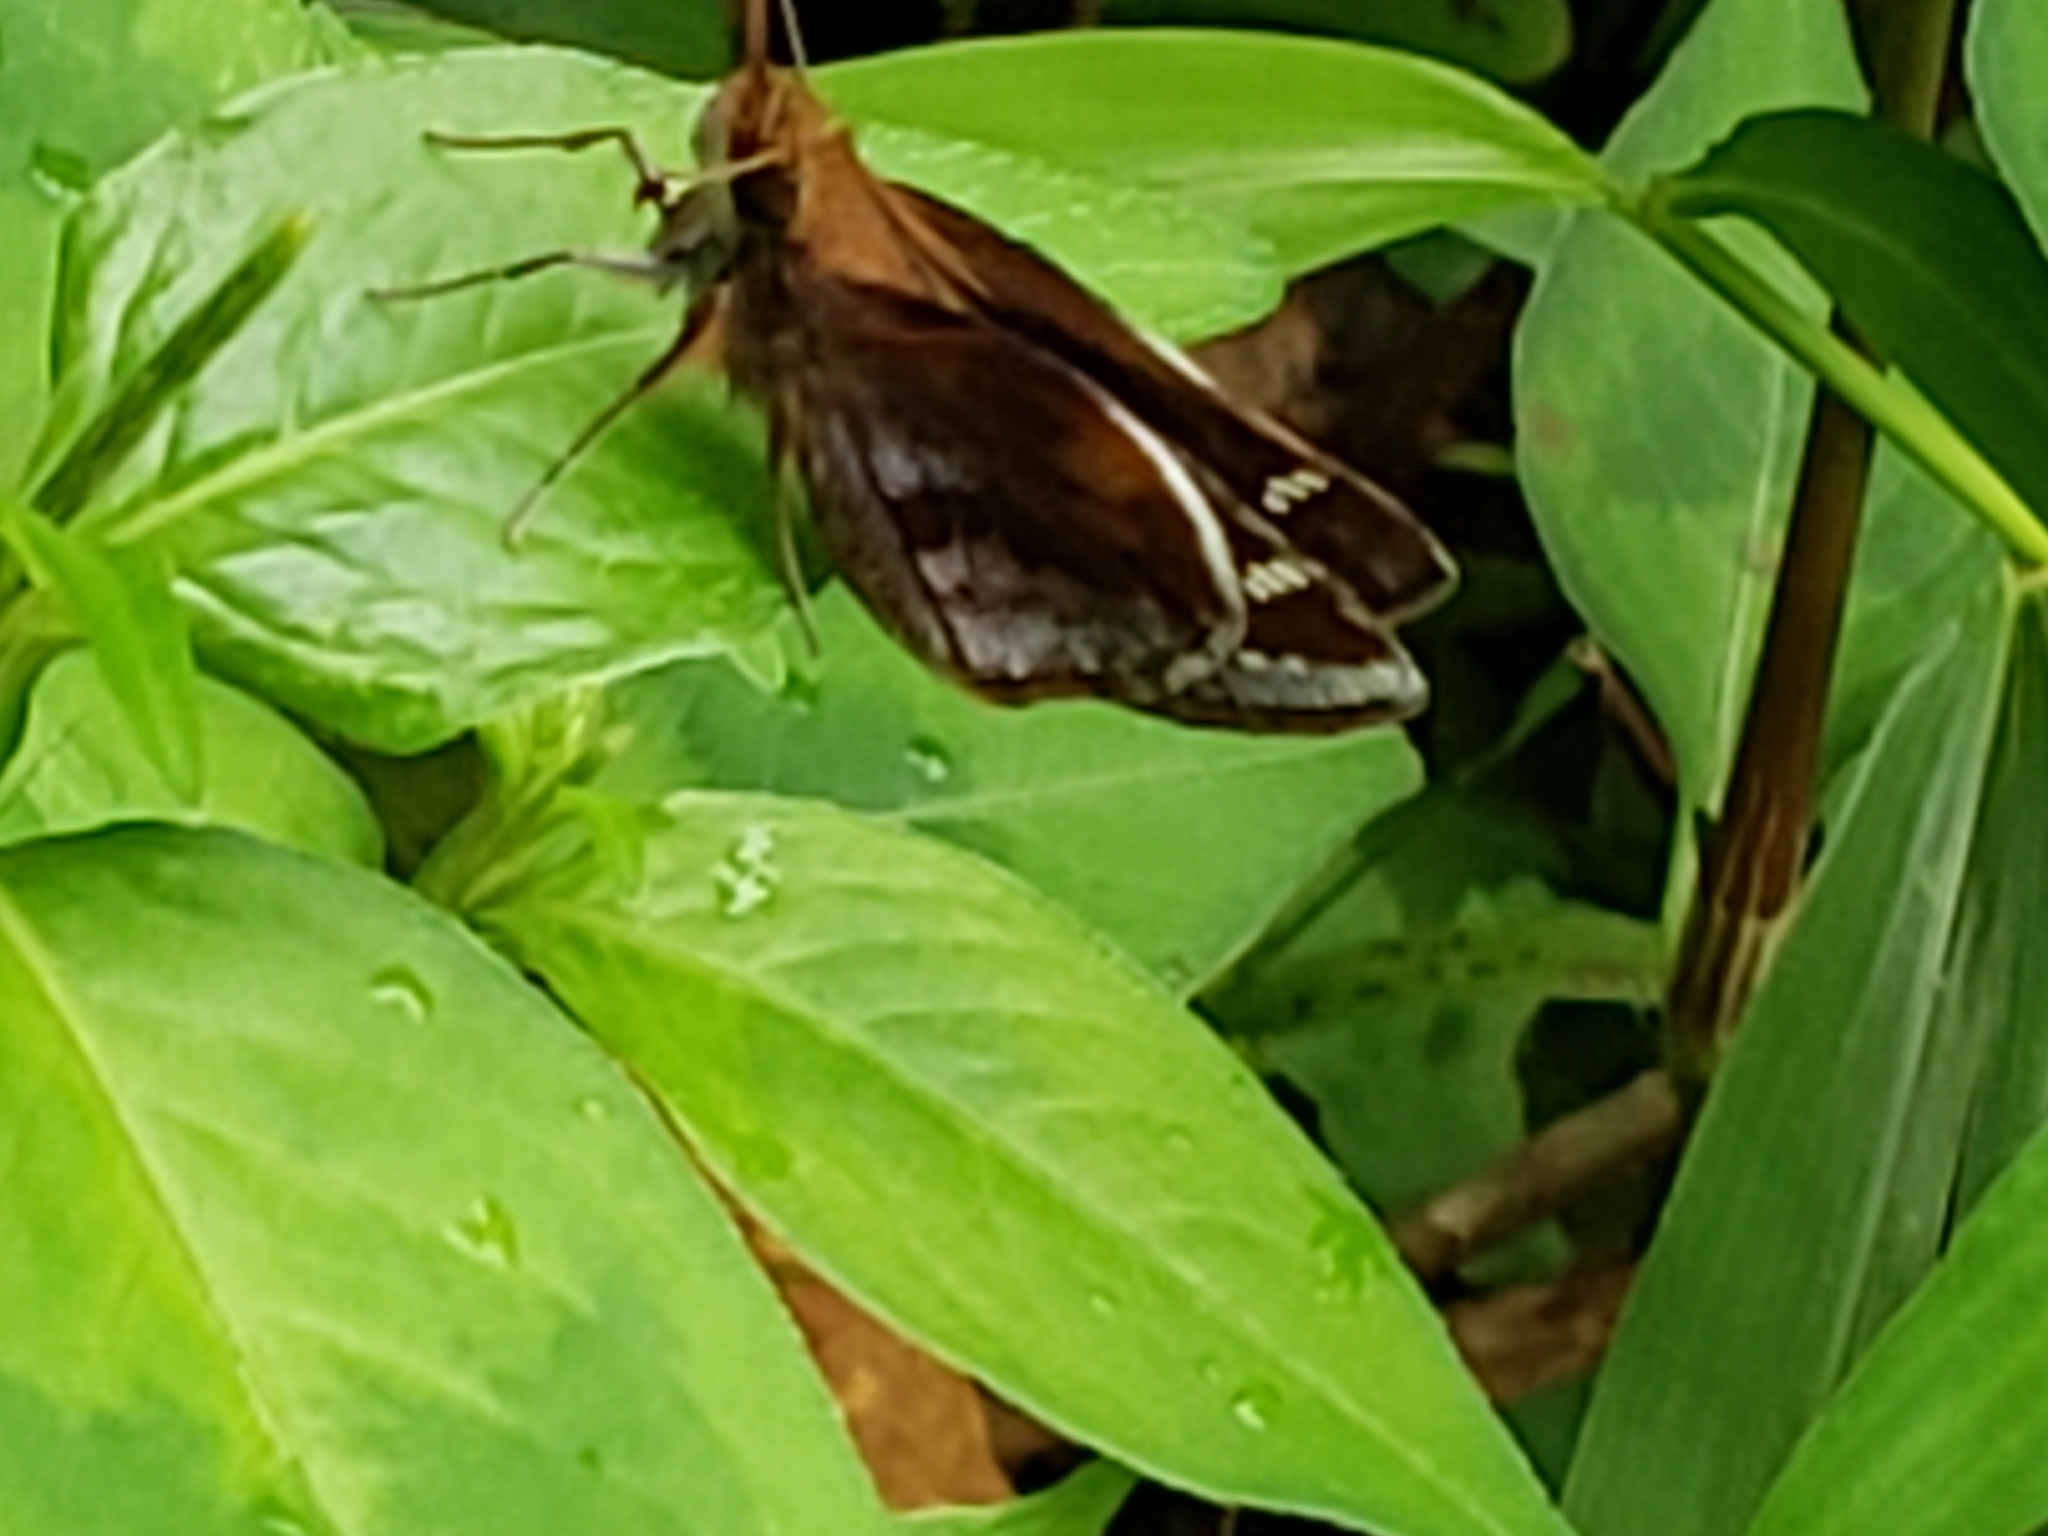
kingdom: Animalia
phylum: Arthropoda
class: Insecta
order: Lepidoptera
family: Hesperiidae
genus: Lon
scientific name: Lon zabulon
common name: Zabulon skipper
